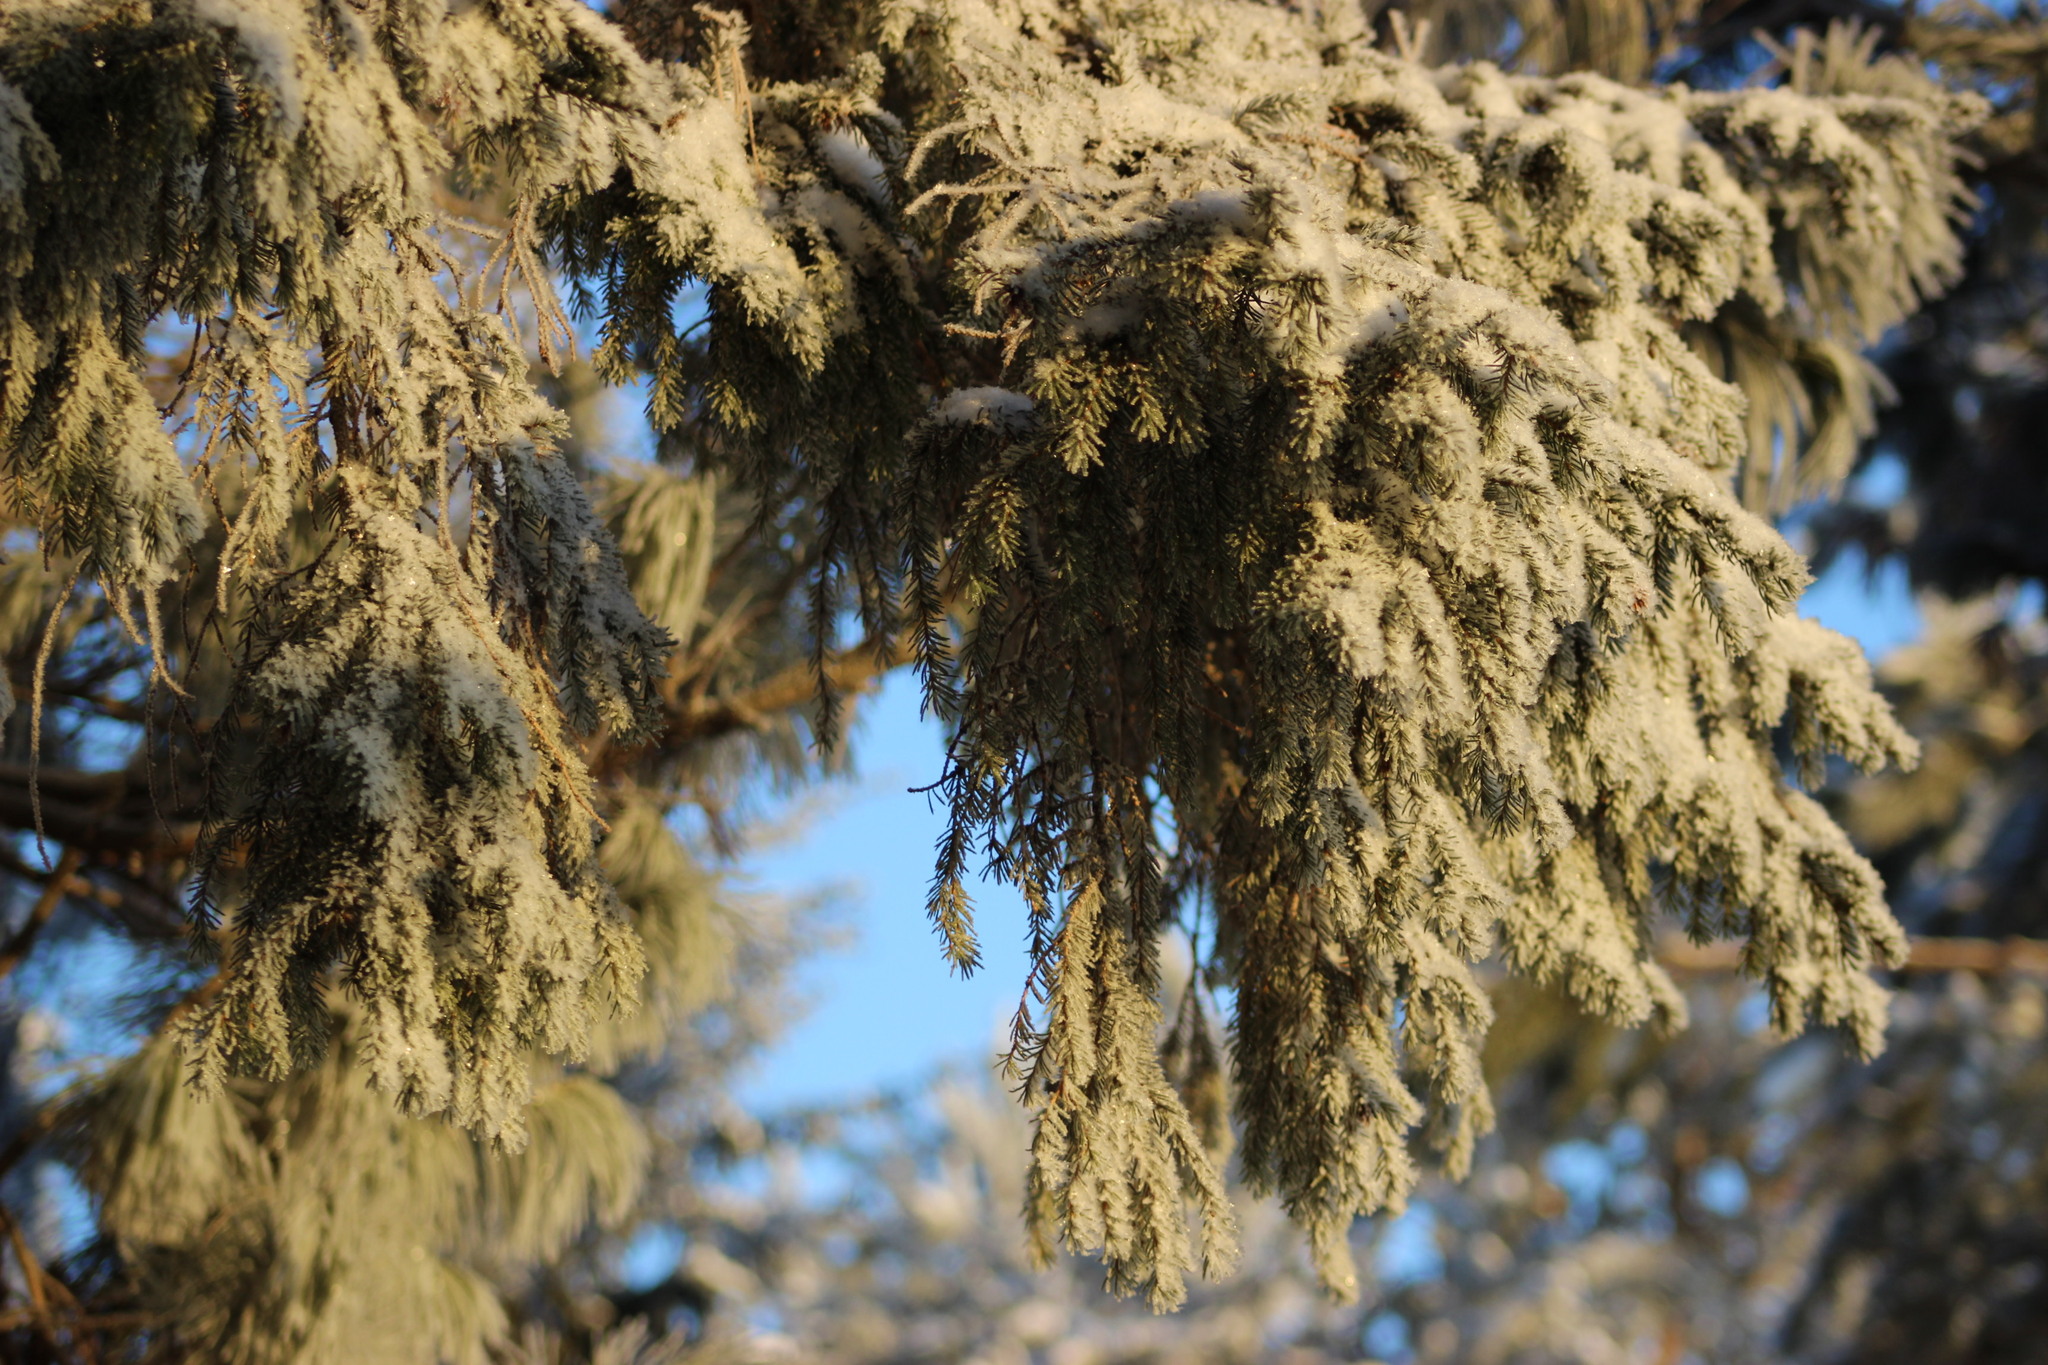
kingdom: Plantae
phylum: Tracheophyta
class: Pinopsida
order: Pinales
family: Pinaceae
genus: Picea
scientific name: Picea obovata
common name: Siberian spruce
